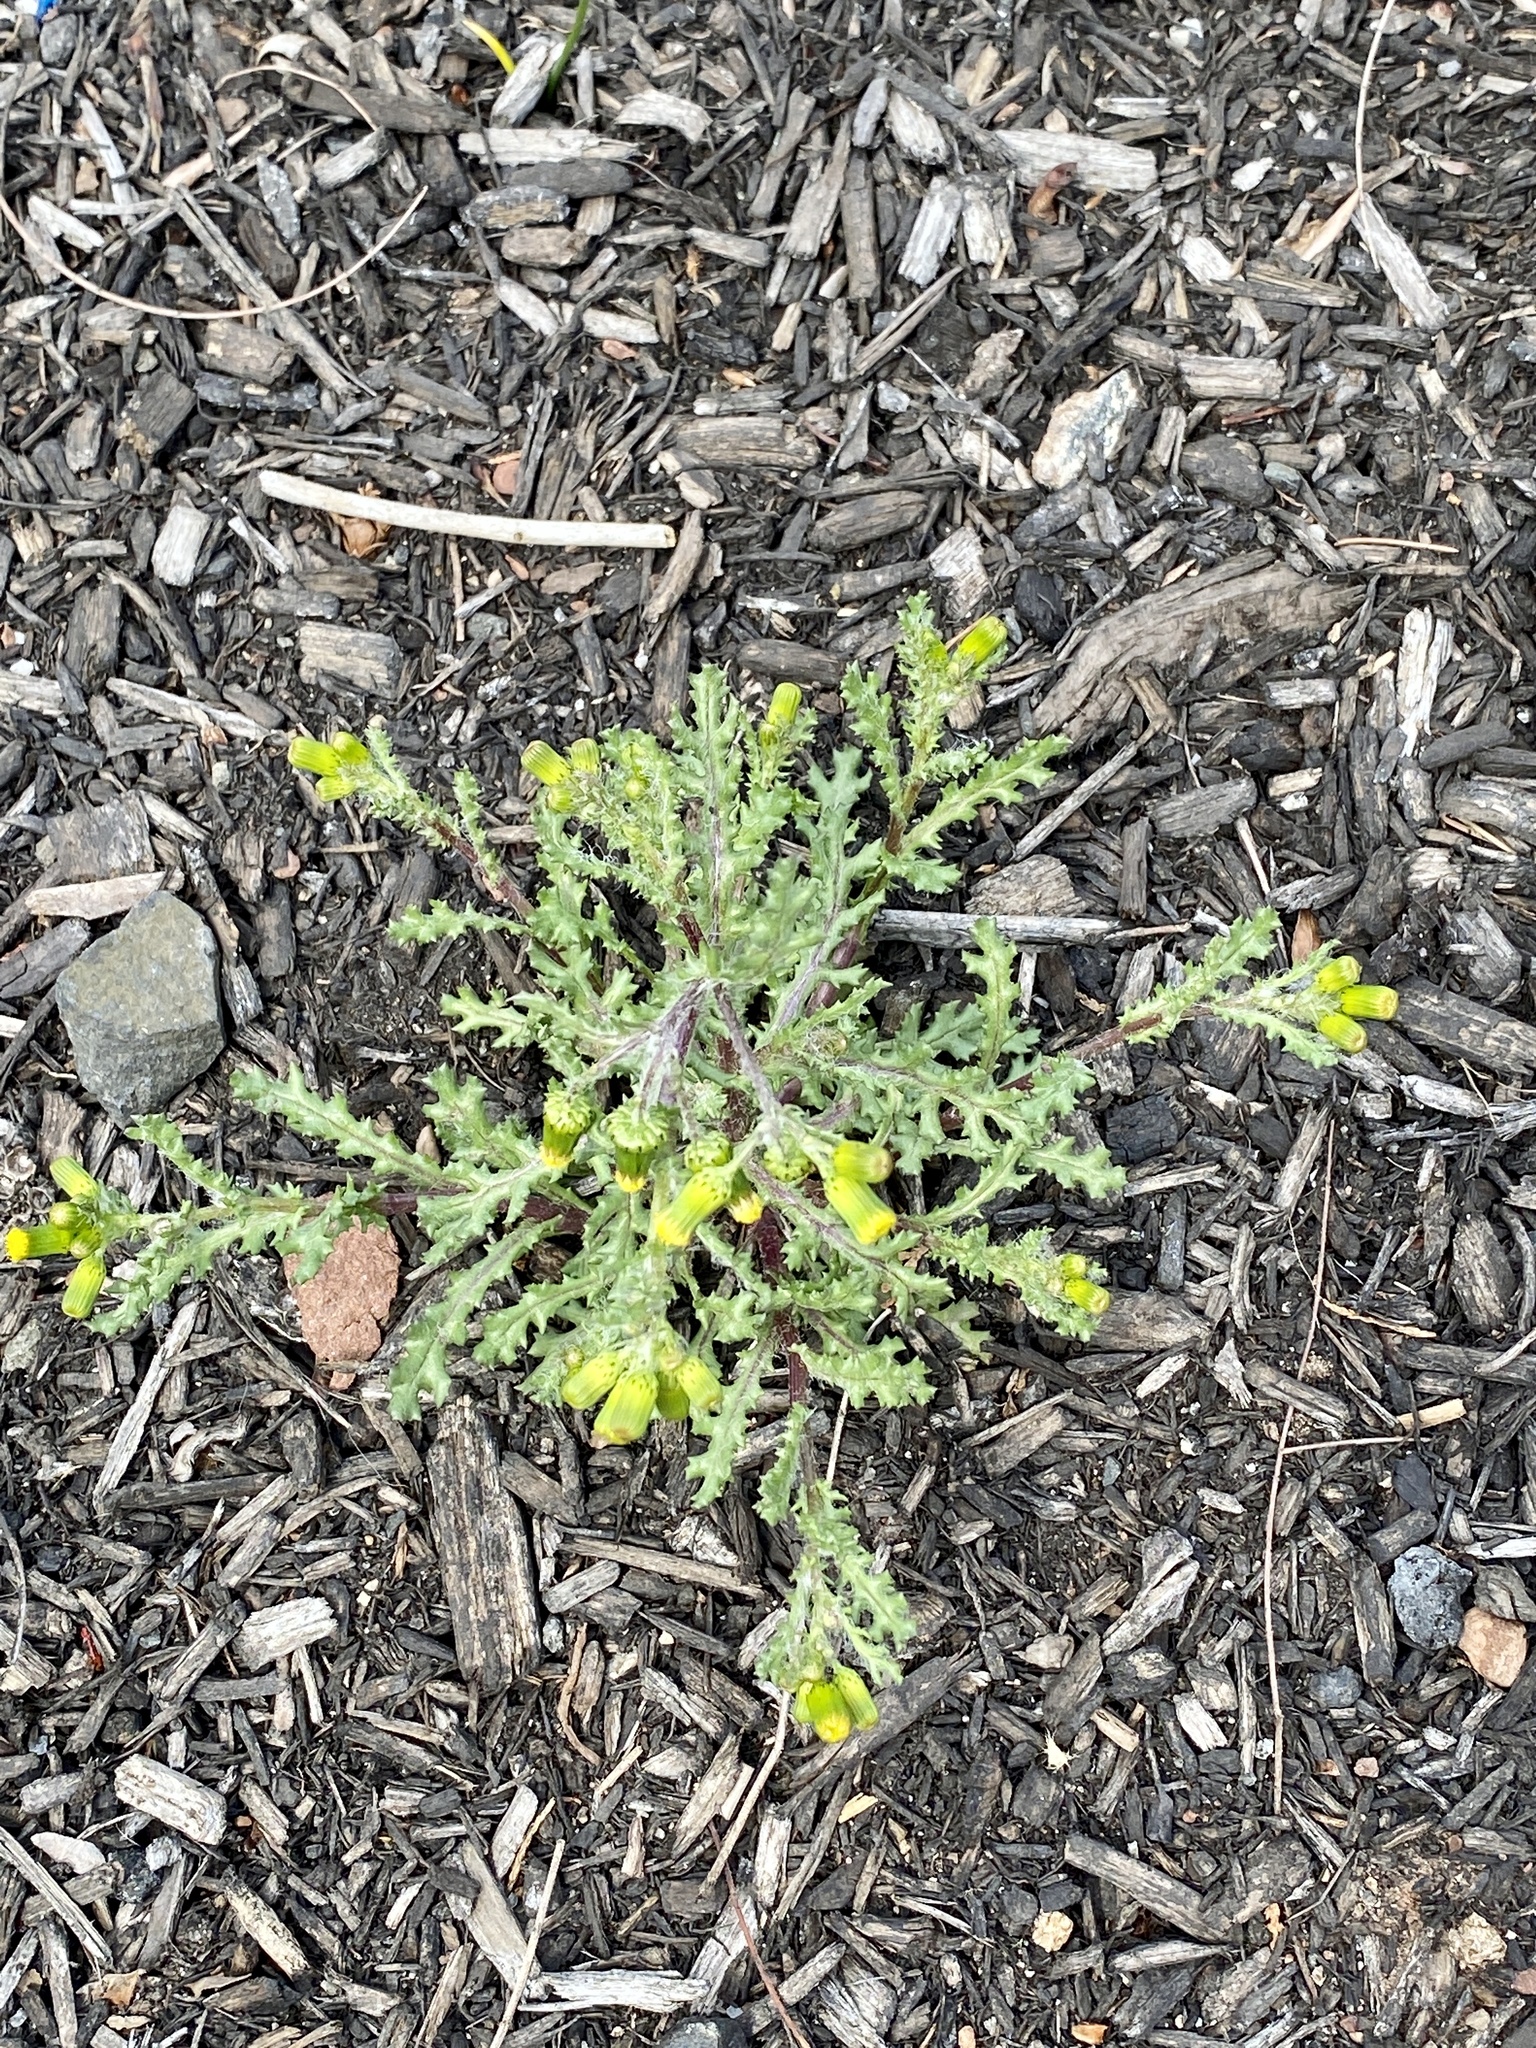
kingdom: Plantae
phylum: Tracheophyta
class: Magnoliopsida
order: Asterales
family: Asteraceae
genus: Senecio
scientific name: Senecio vulgaris
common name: Old-man-in-the-spring
